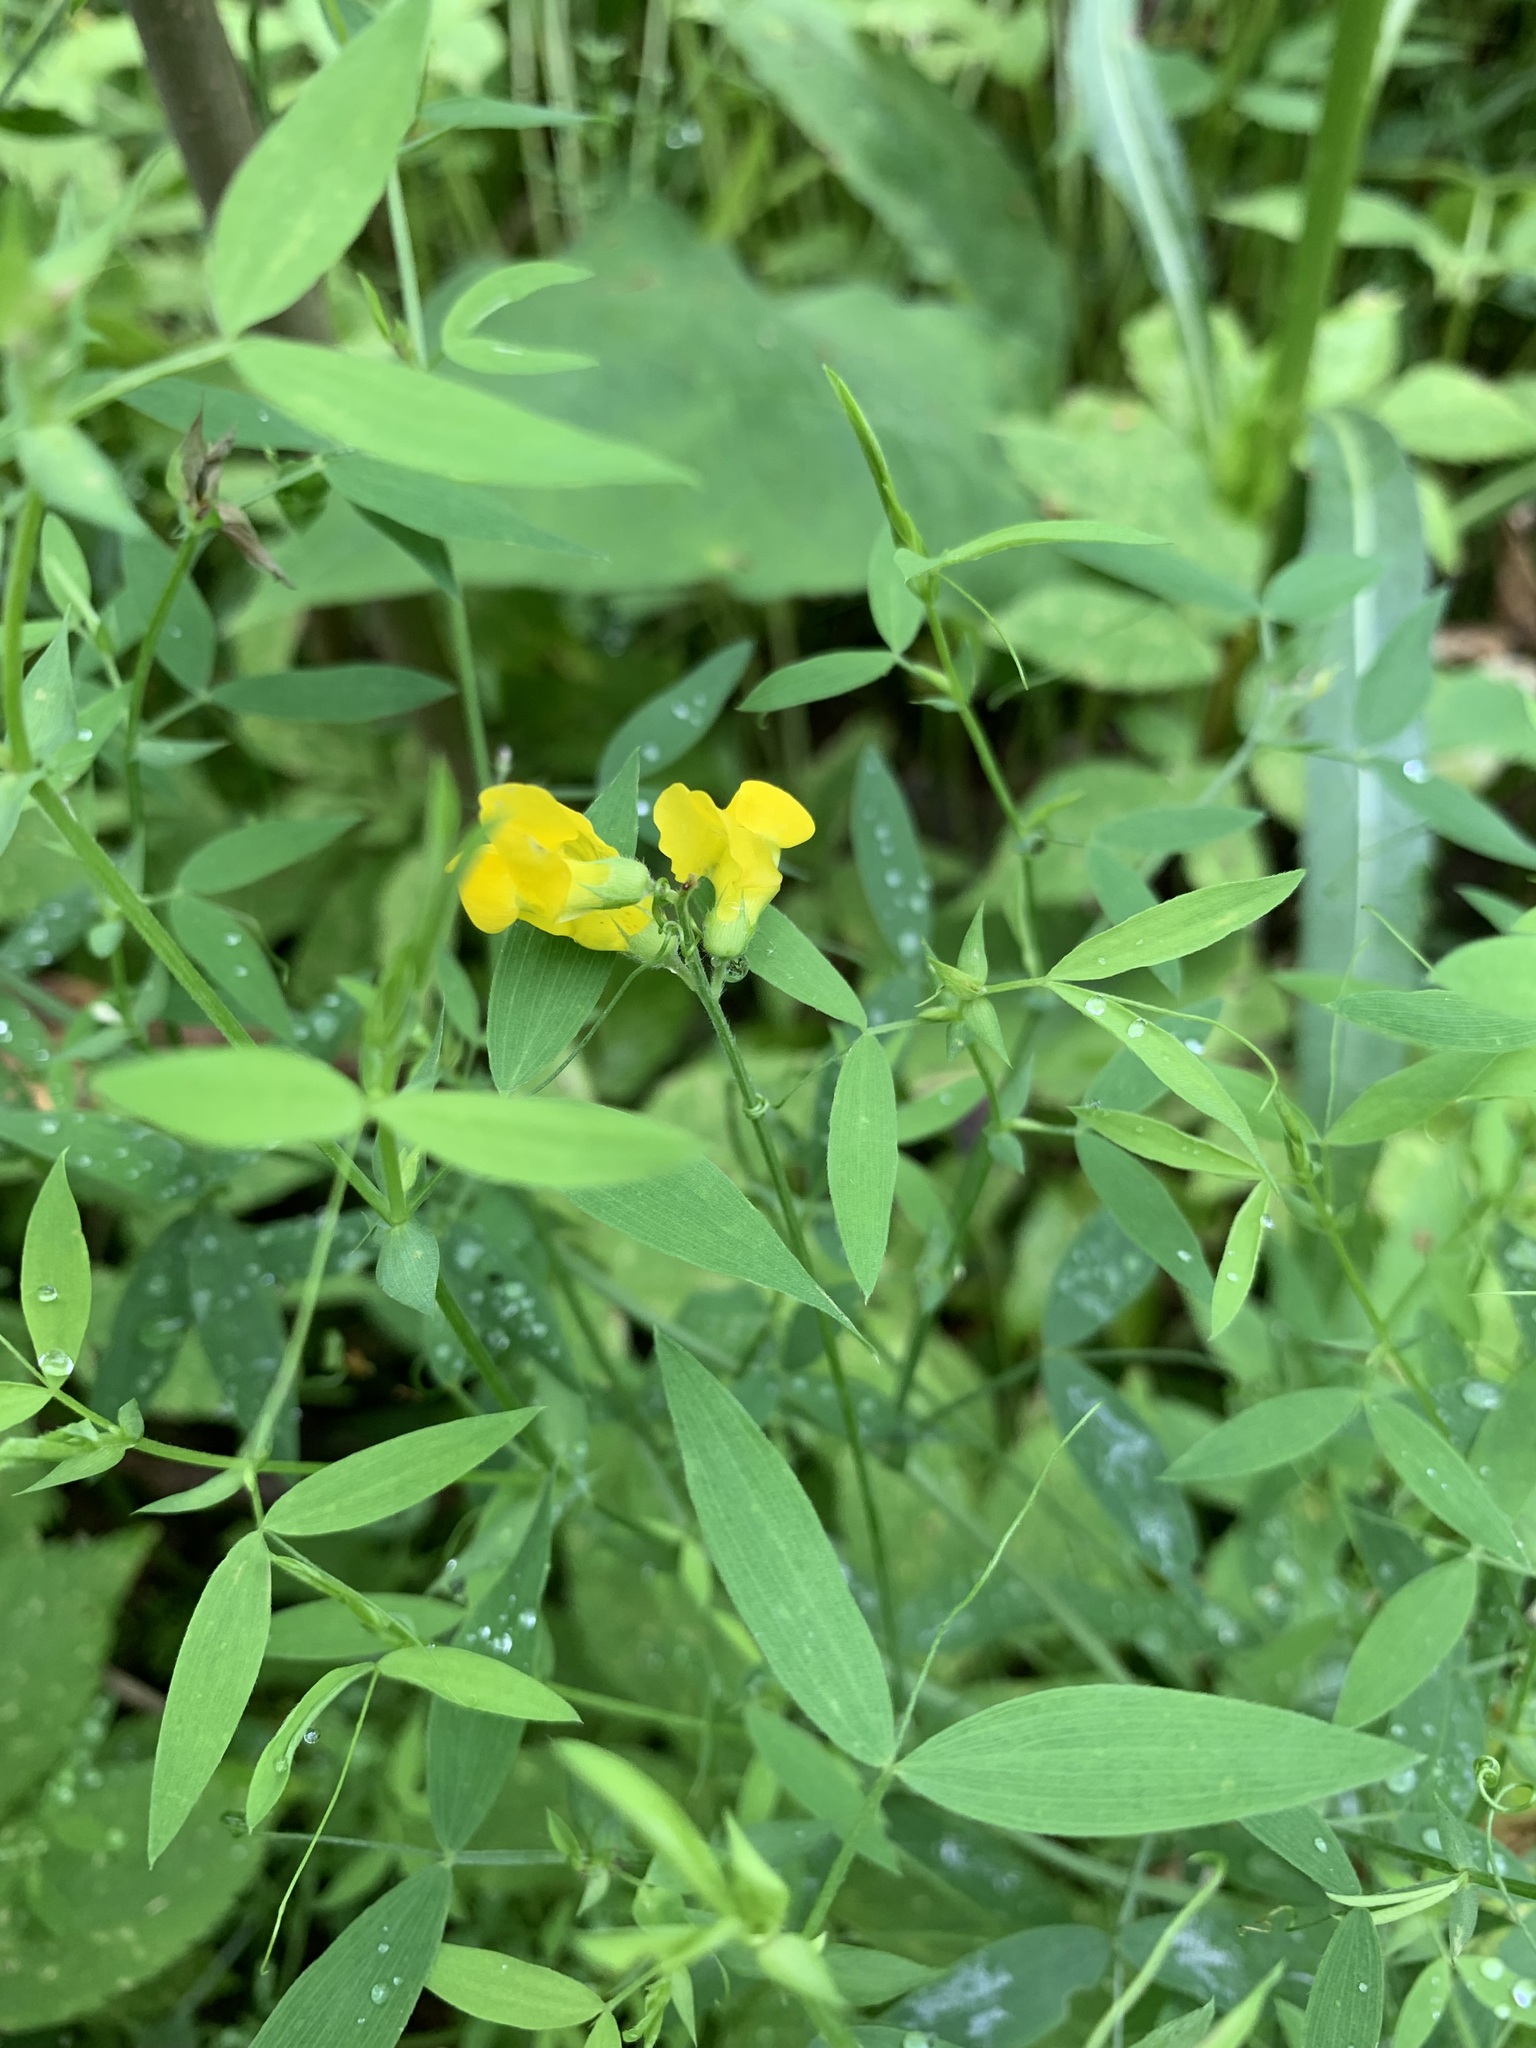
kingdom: Plantae
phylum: Tracheophyta
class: Magnoliopsida
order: Fabales
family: Fabaceae
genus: Lathyrus
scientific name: Lathyrus pratensis
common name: Meadow vetchling
